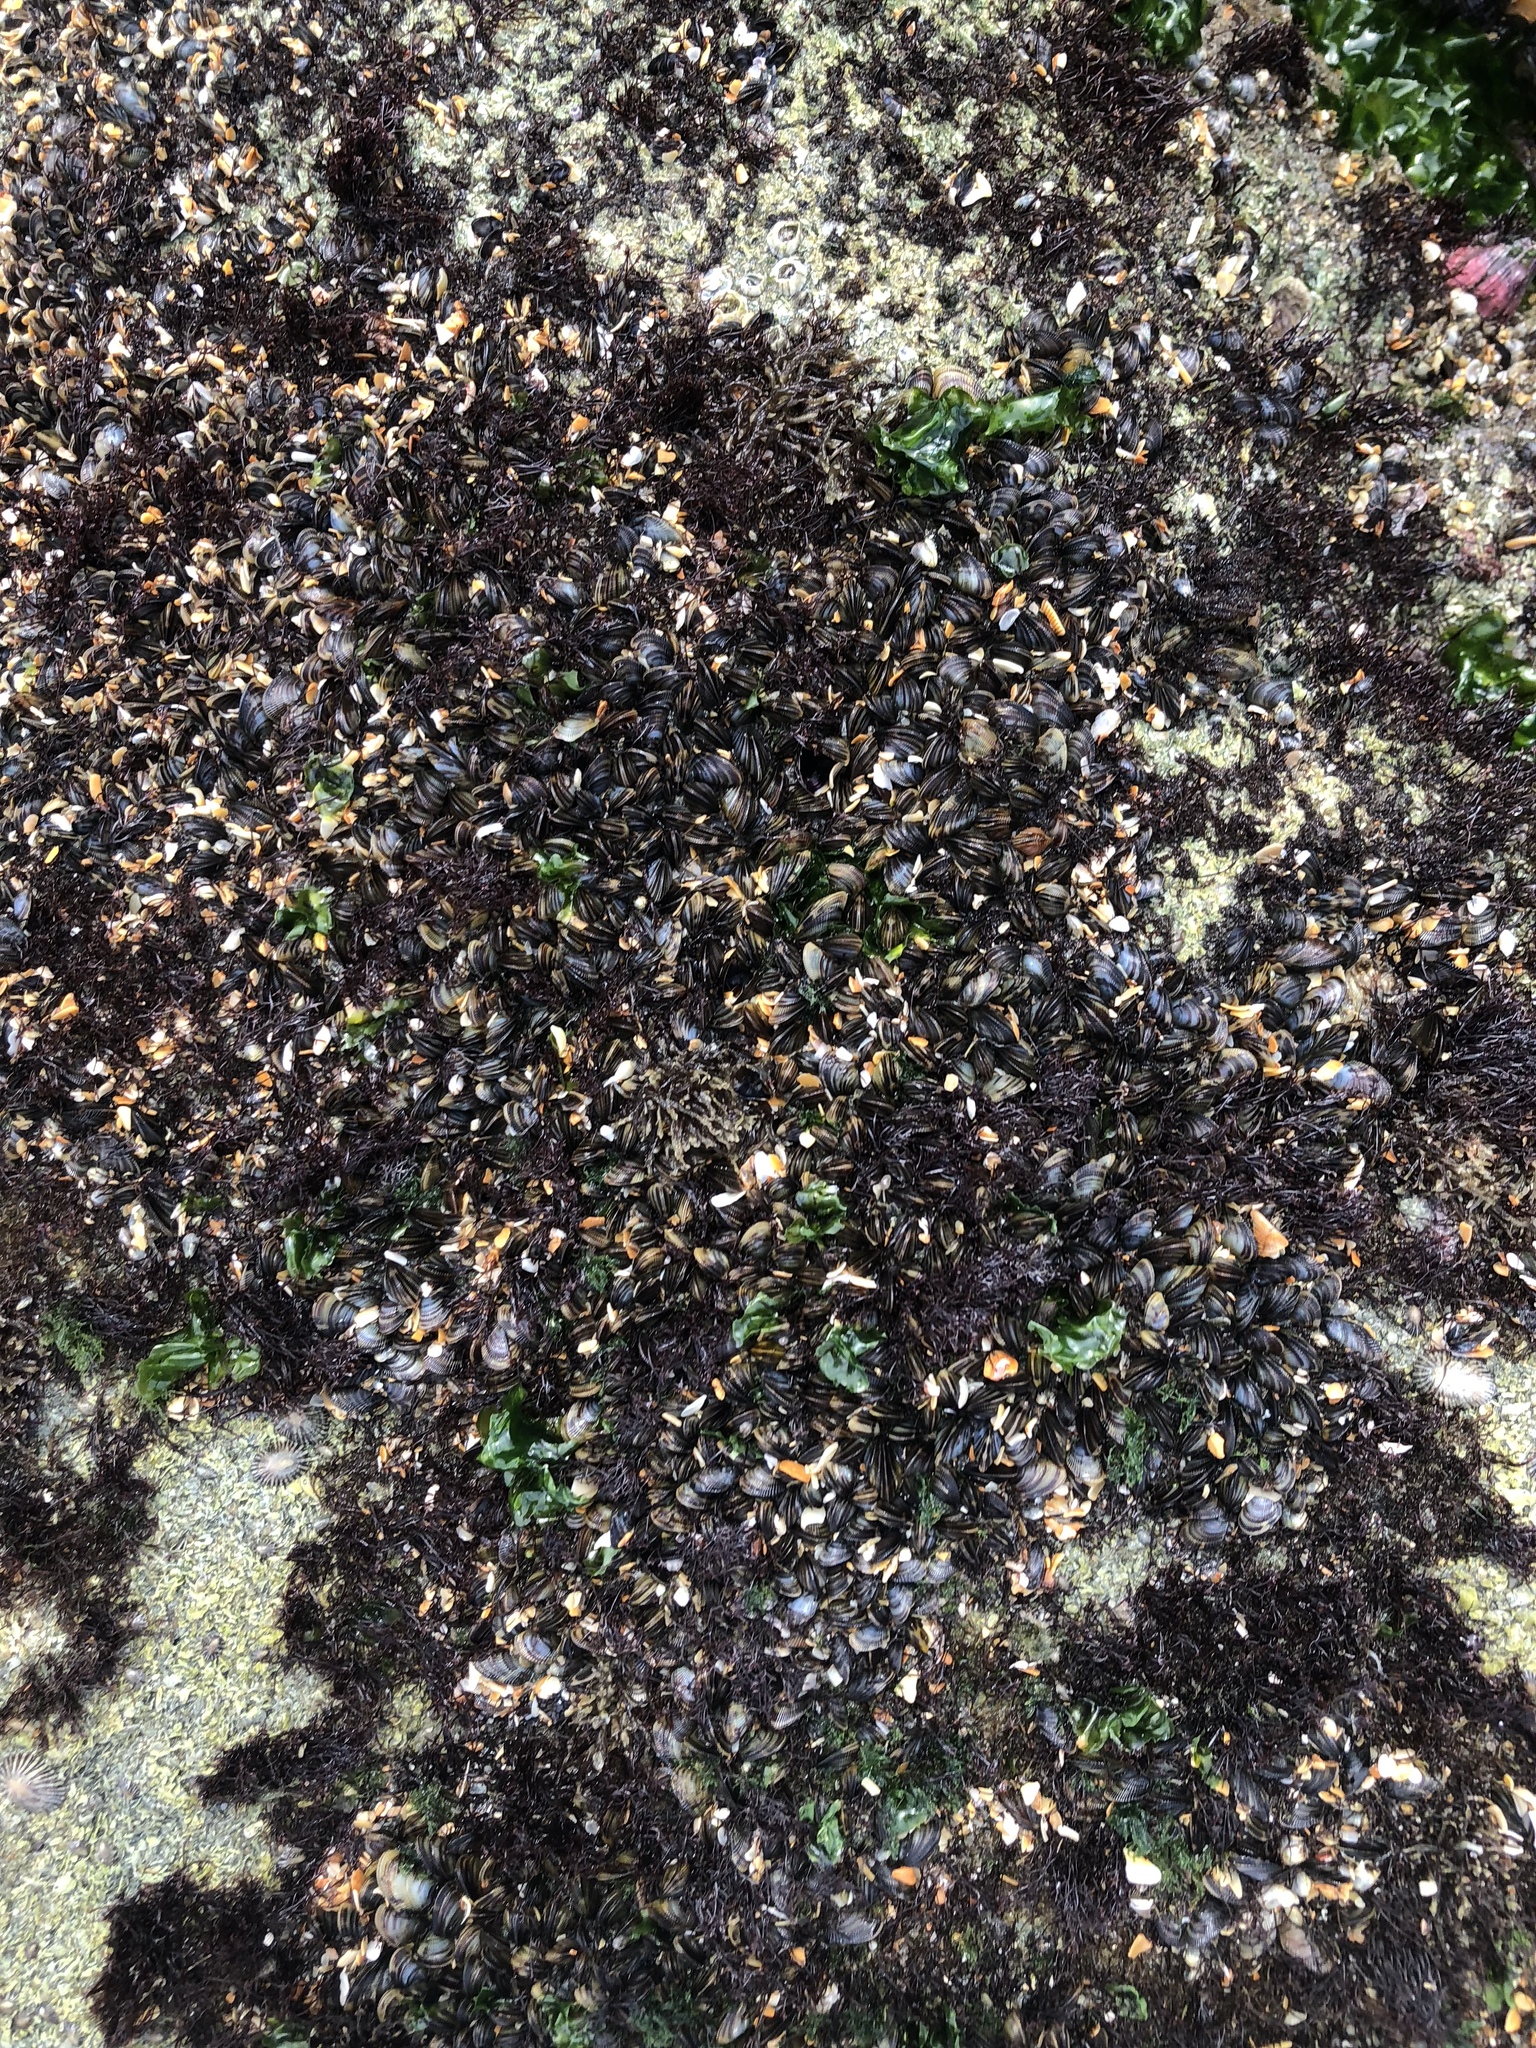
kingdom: Animalia
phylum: Mollusca
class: Bivalvia
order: Mytilida
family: Mytilidae
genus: Brachidontes
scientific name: Brachidontes exustus
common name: Scorched mussel
